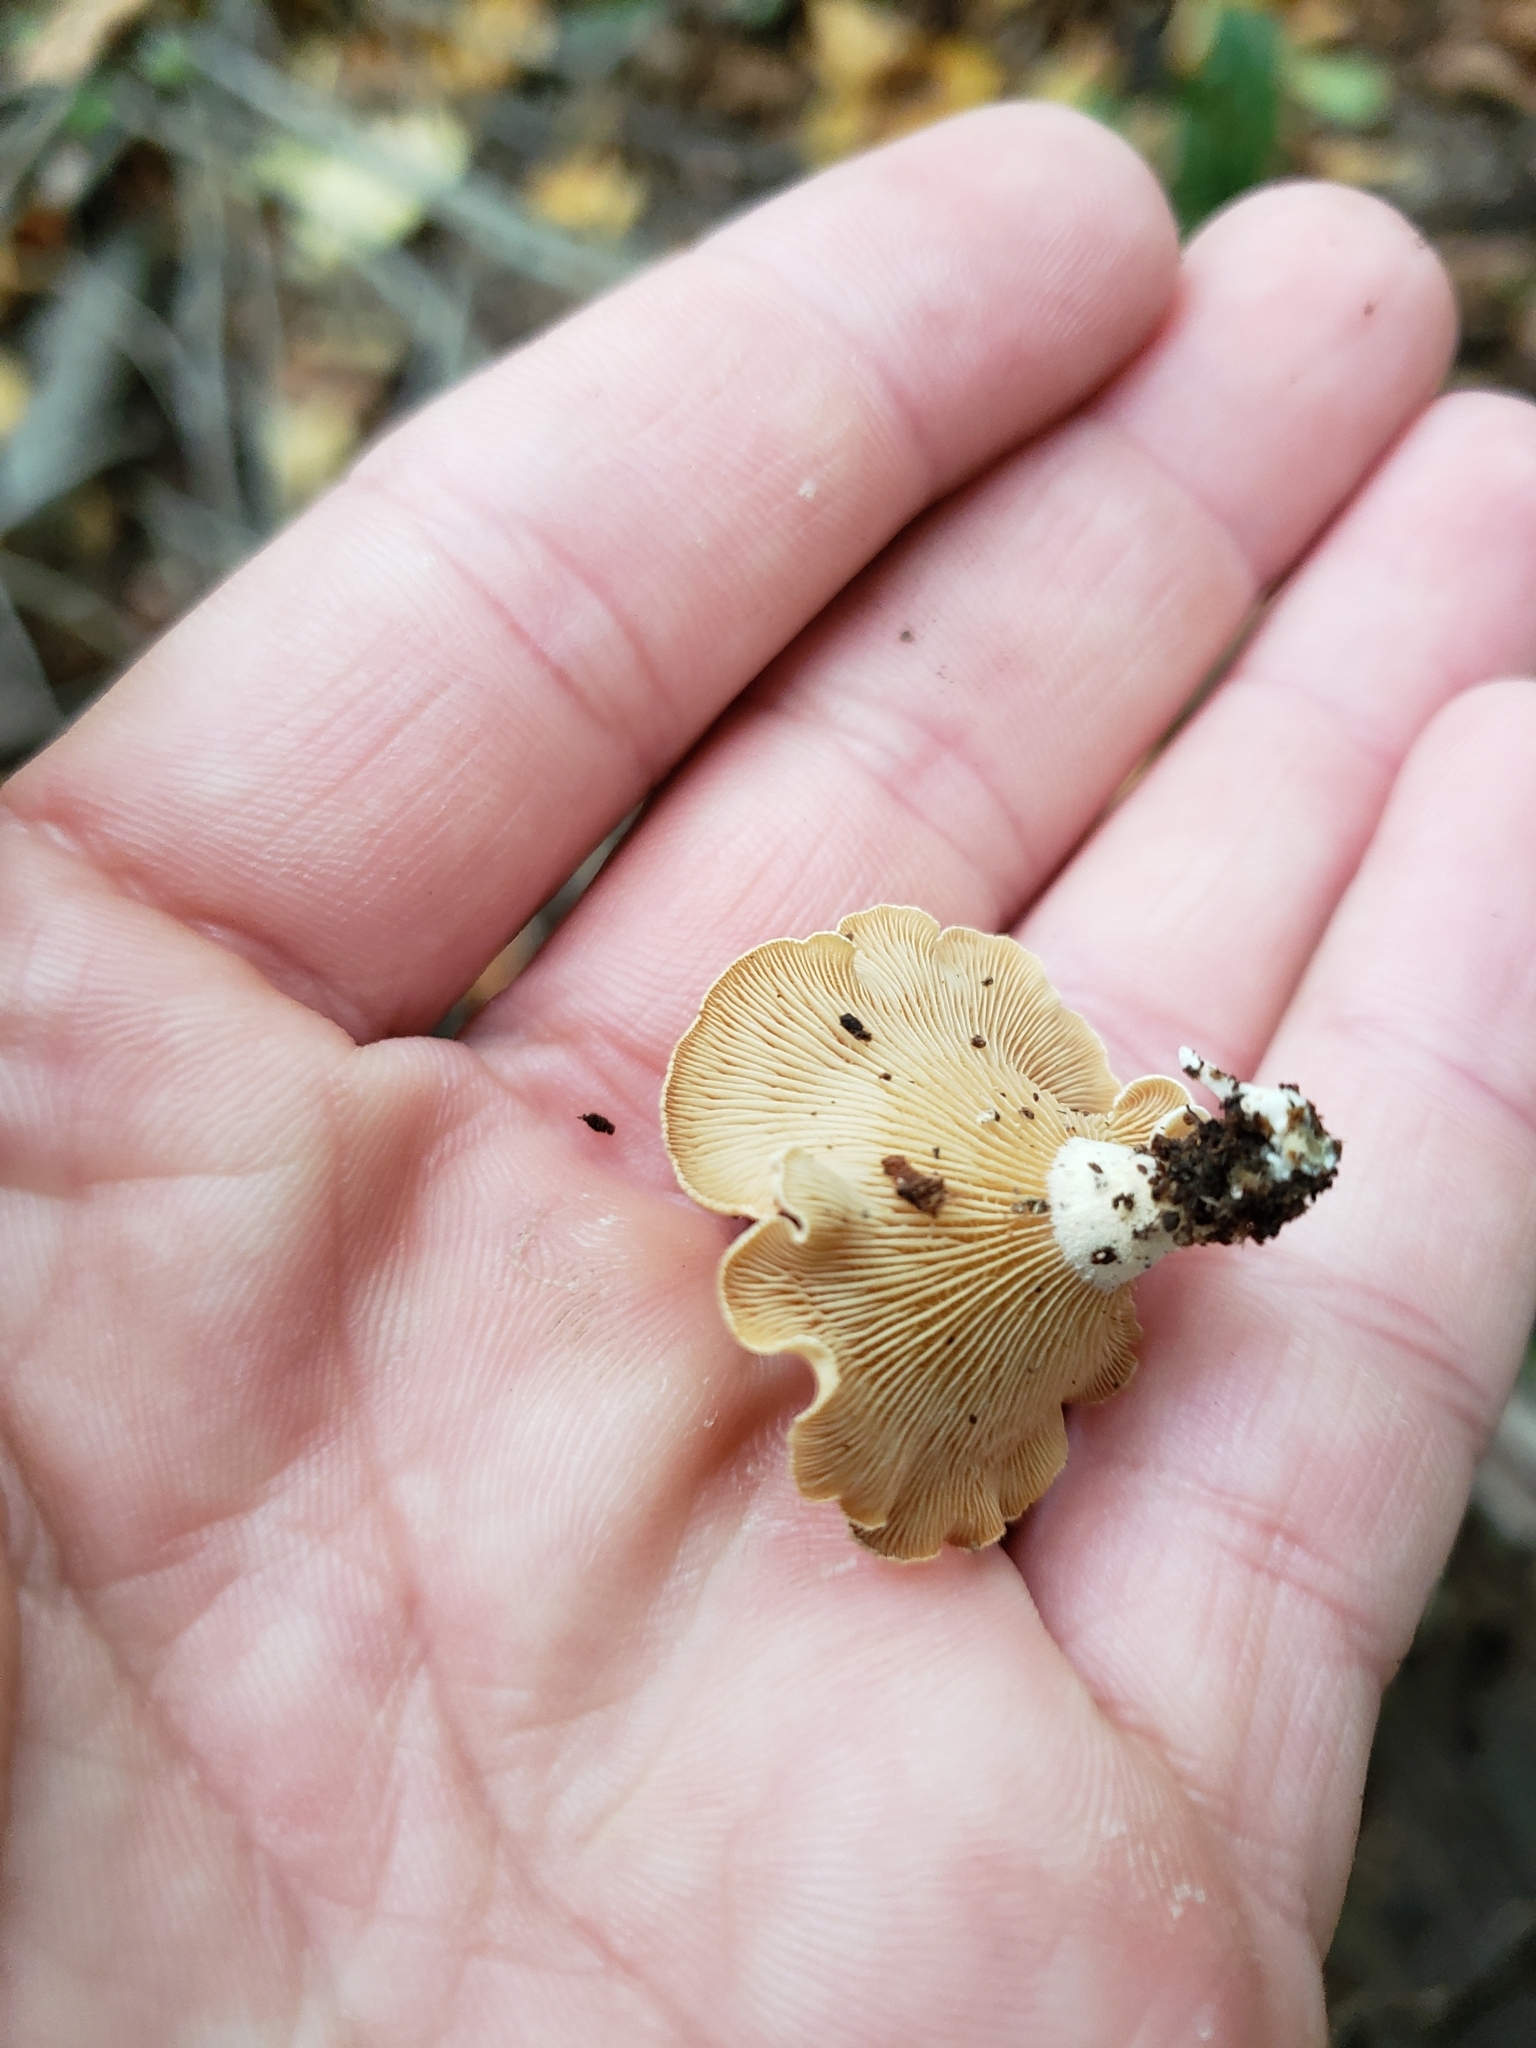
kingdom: Fungi
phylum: Basidiomycota
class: Agaricomycetes
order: Agaricales
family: Mycenaceae
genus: Panellus
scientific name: Panellus stipticus
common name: Bitter oysterling
